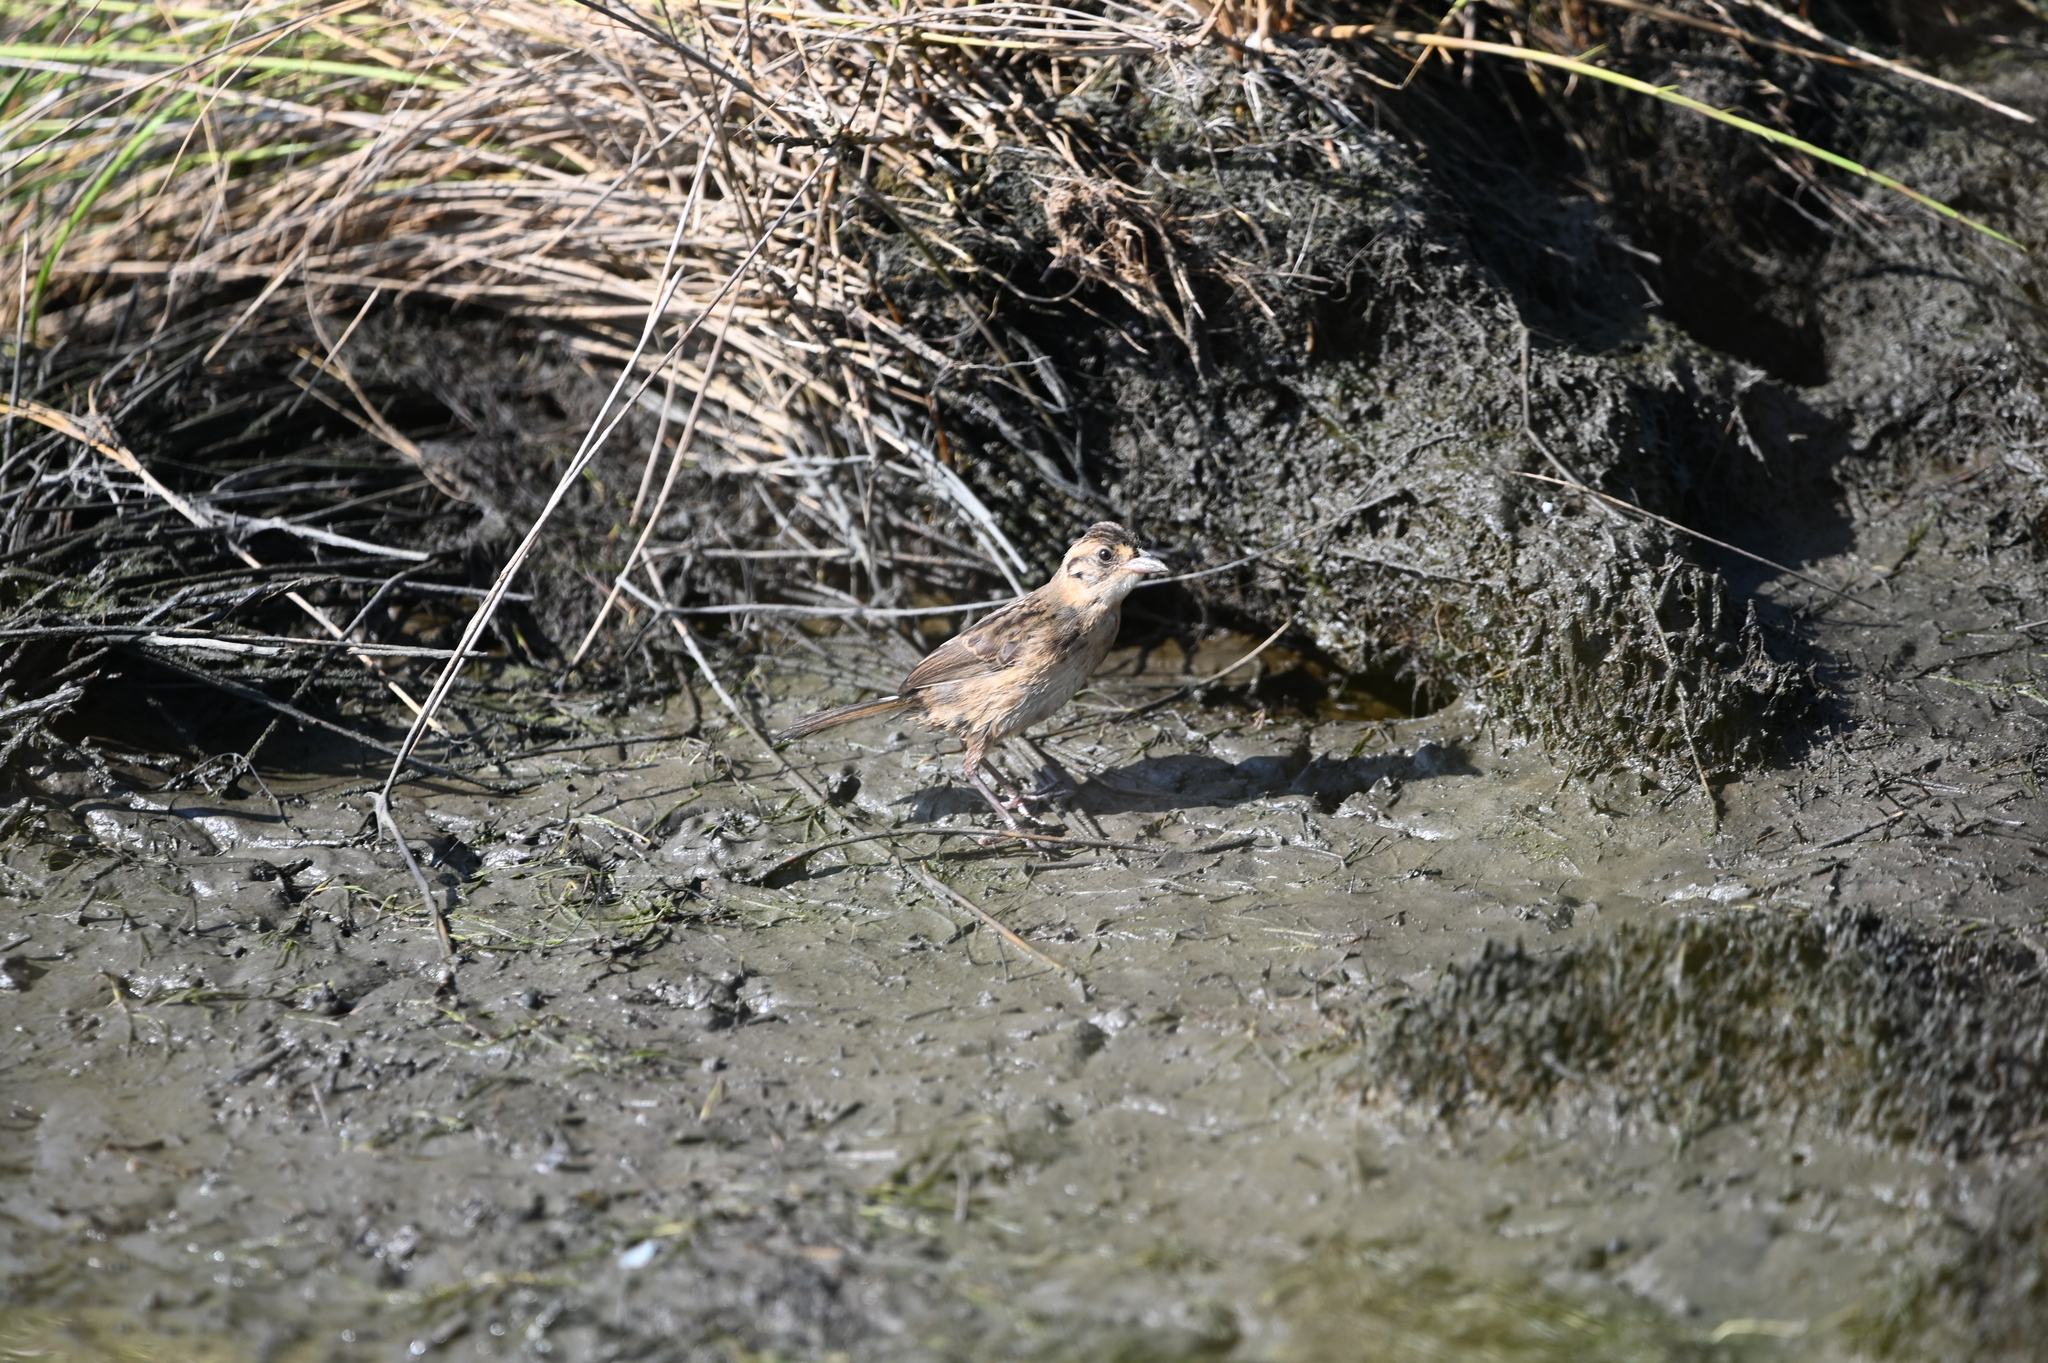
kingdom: Animalia
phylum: Chordata
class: Aves
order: Passeriformes
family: Passerellidae
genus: Ammospiza
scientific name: Ammospiza maritima
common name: Seaside sparrow
